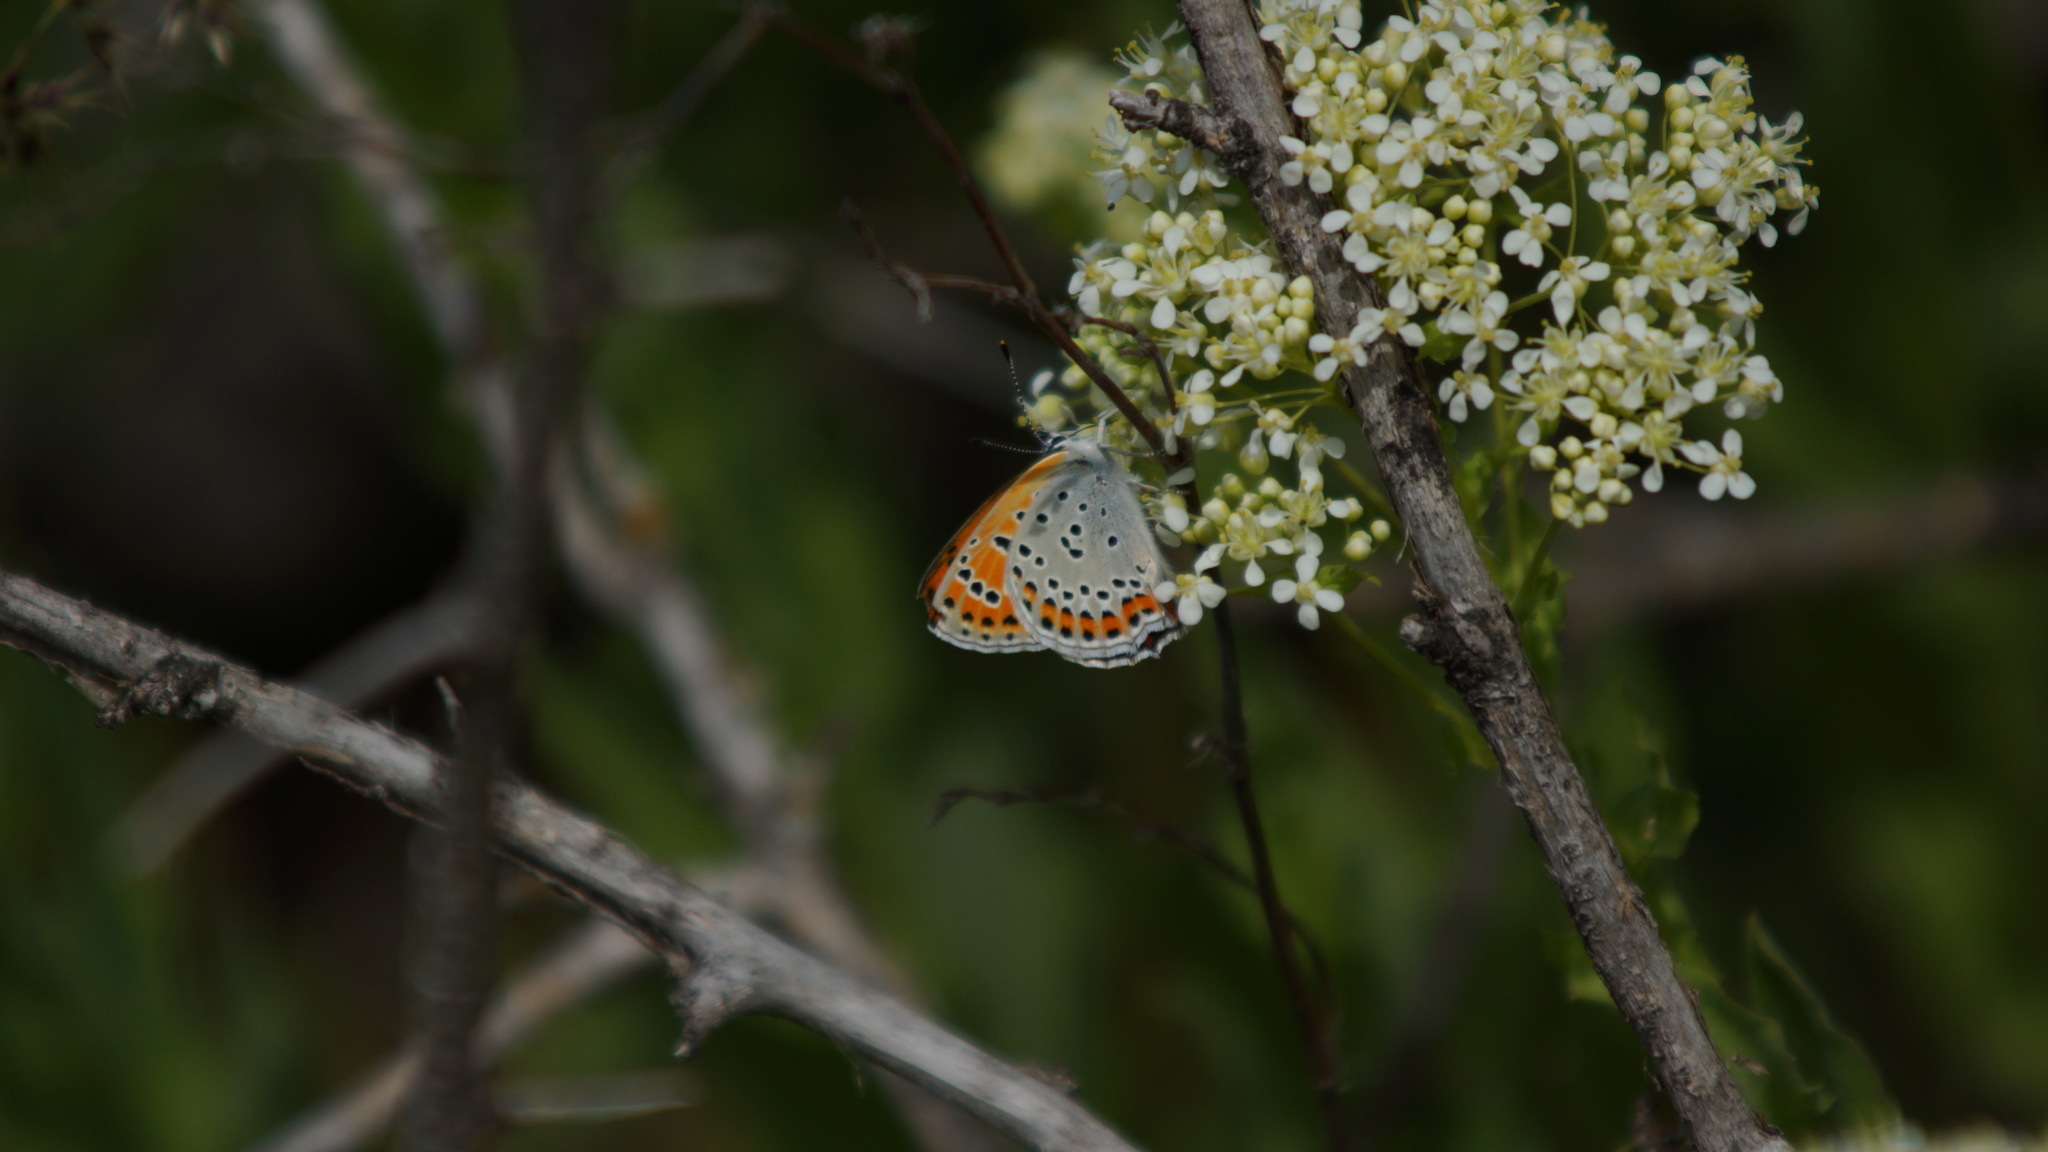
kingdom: Animalia
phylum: Arthropoda
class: Insecta
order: Lepidoptera
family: Lycaenidae
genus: Thersamonia
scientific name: Thersamonia thersamon
